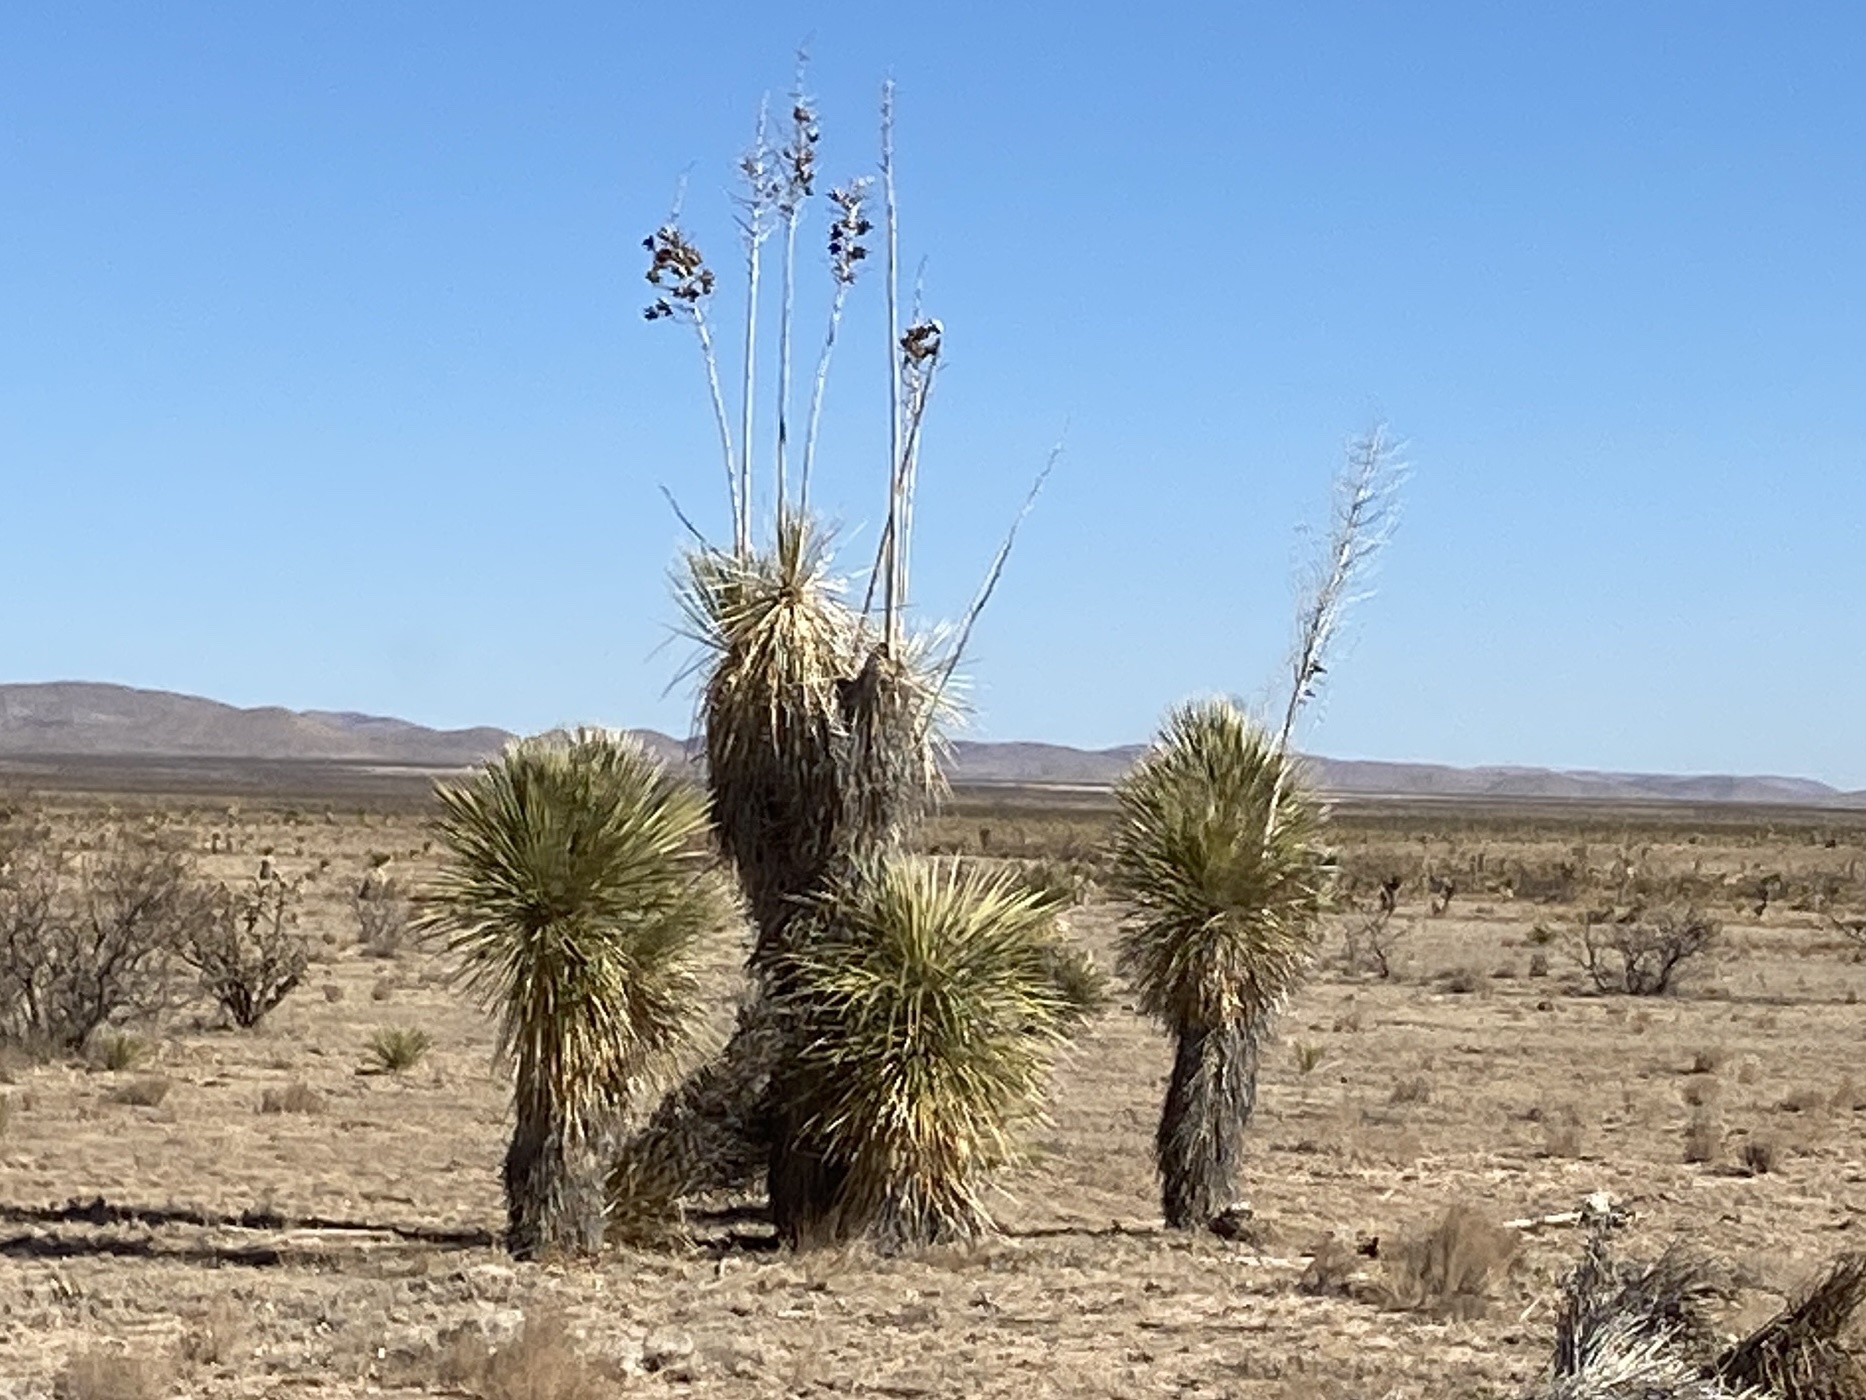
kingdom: Plantae
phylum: Tracheophyta
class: Liliopsida
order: Asparagales
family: Asparagaceae
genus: Yucca
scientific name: Yucca elata
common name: Palmella
